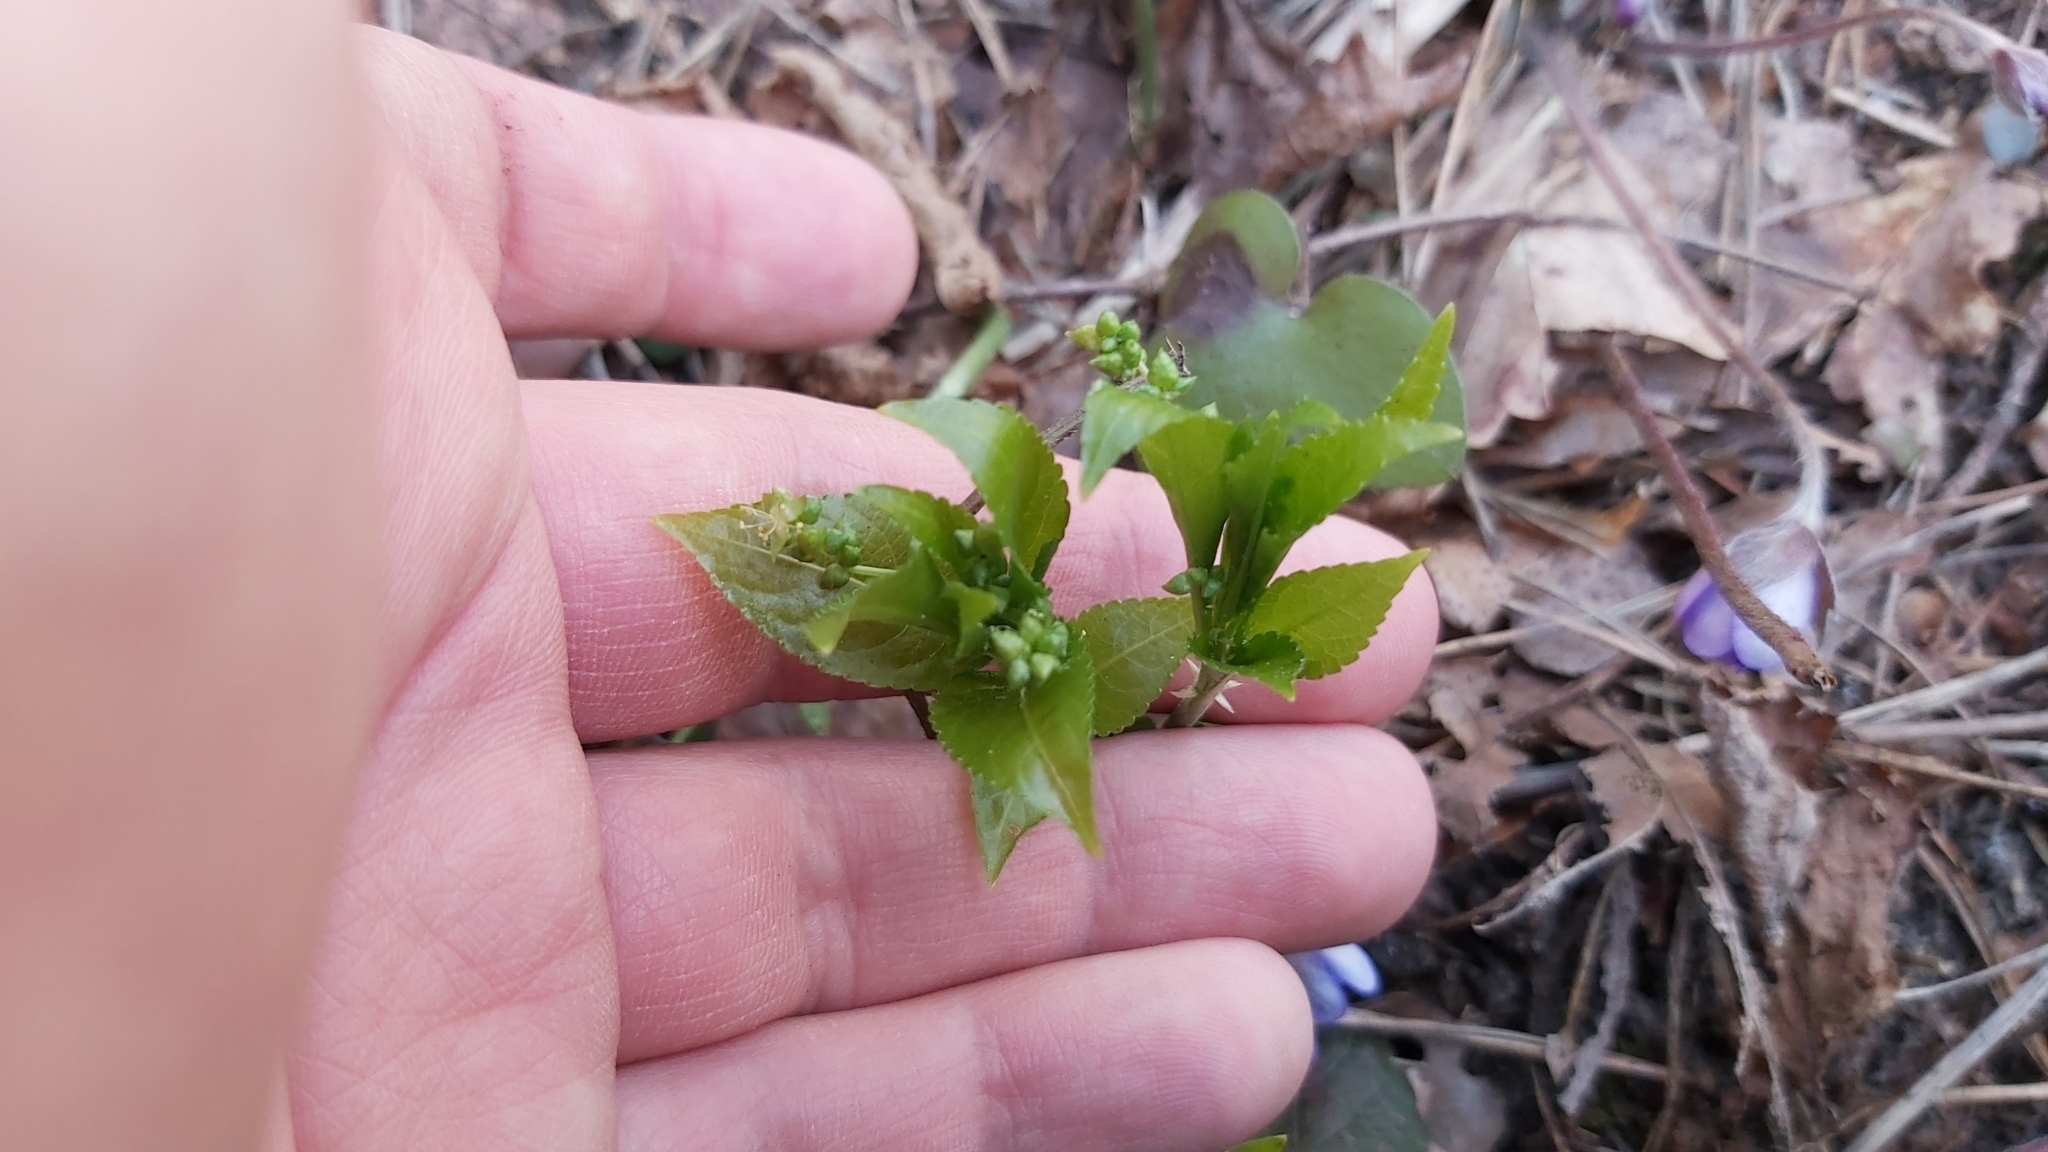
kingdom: Plantae
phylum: Tracheophyta
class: Magnoliopsida
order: Malpighiales
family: Euphorbiaceae
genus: Mercurialis
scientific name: Mercurialis perennis
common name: Dog mercury
